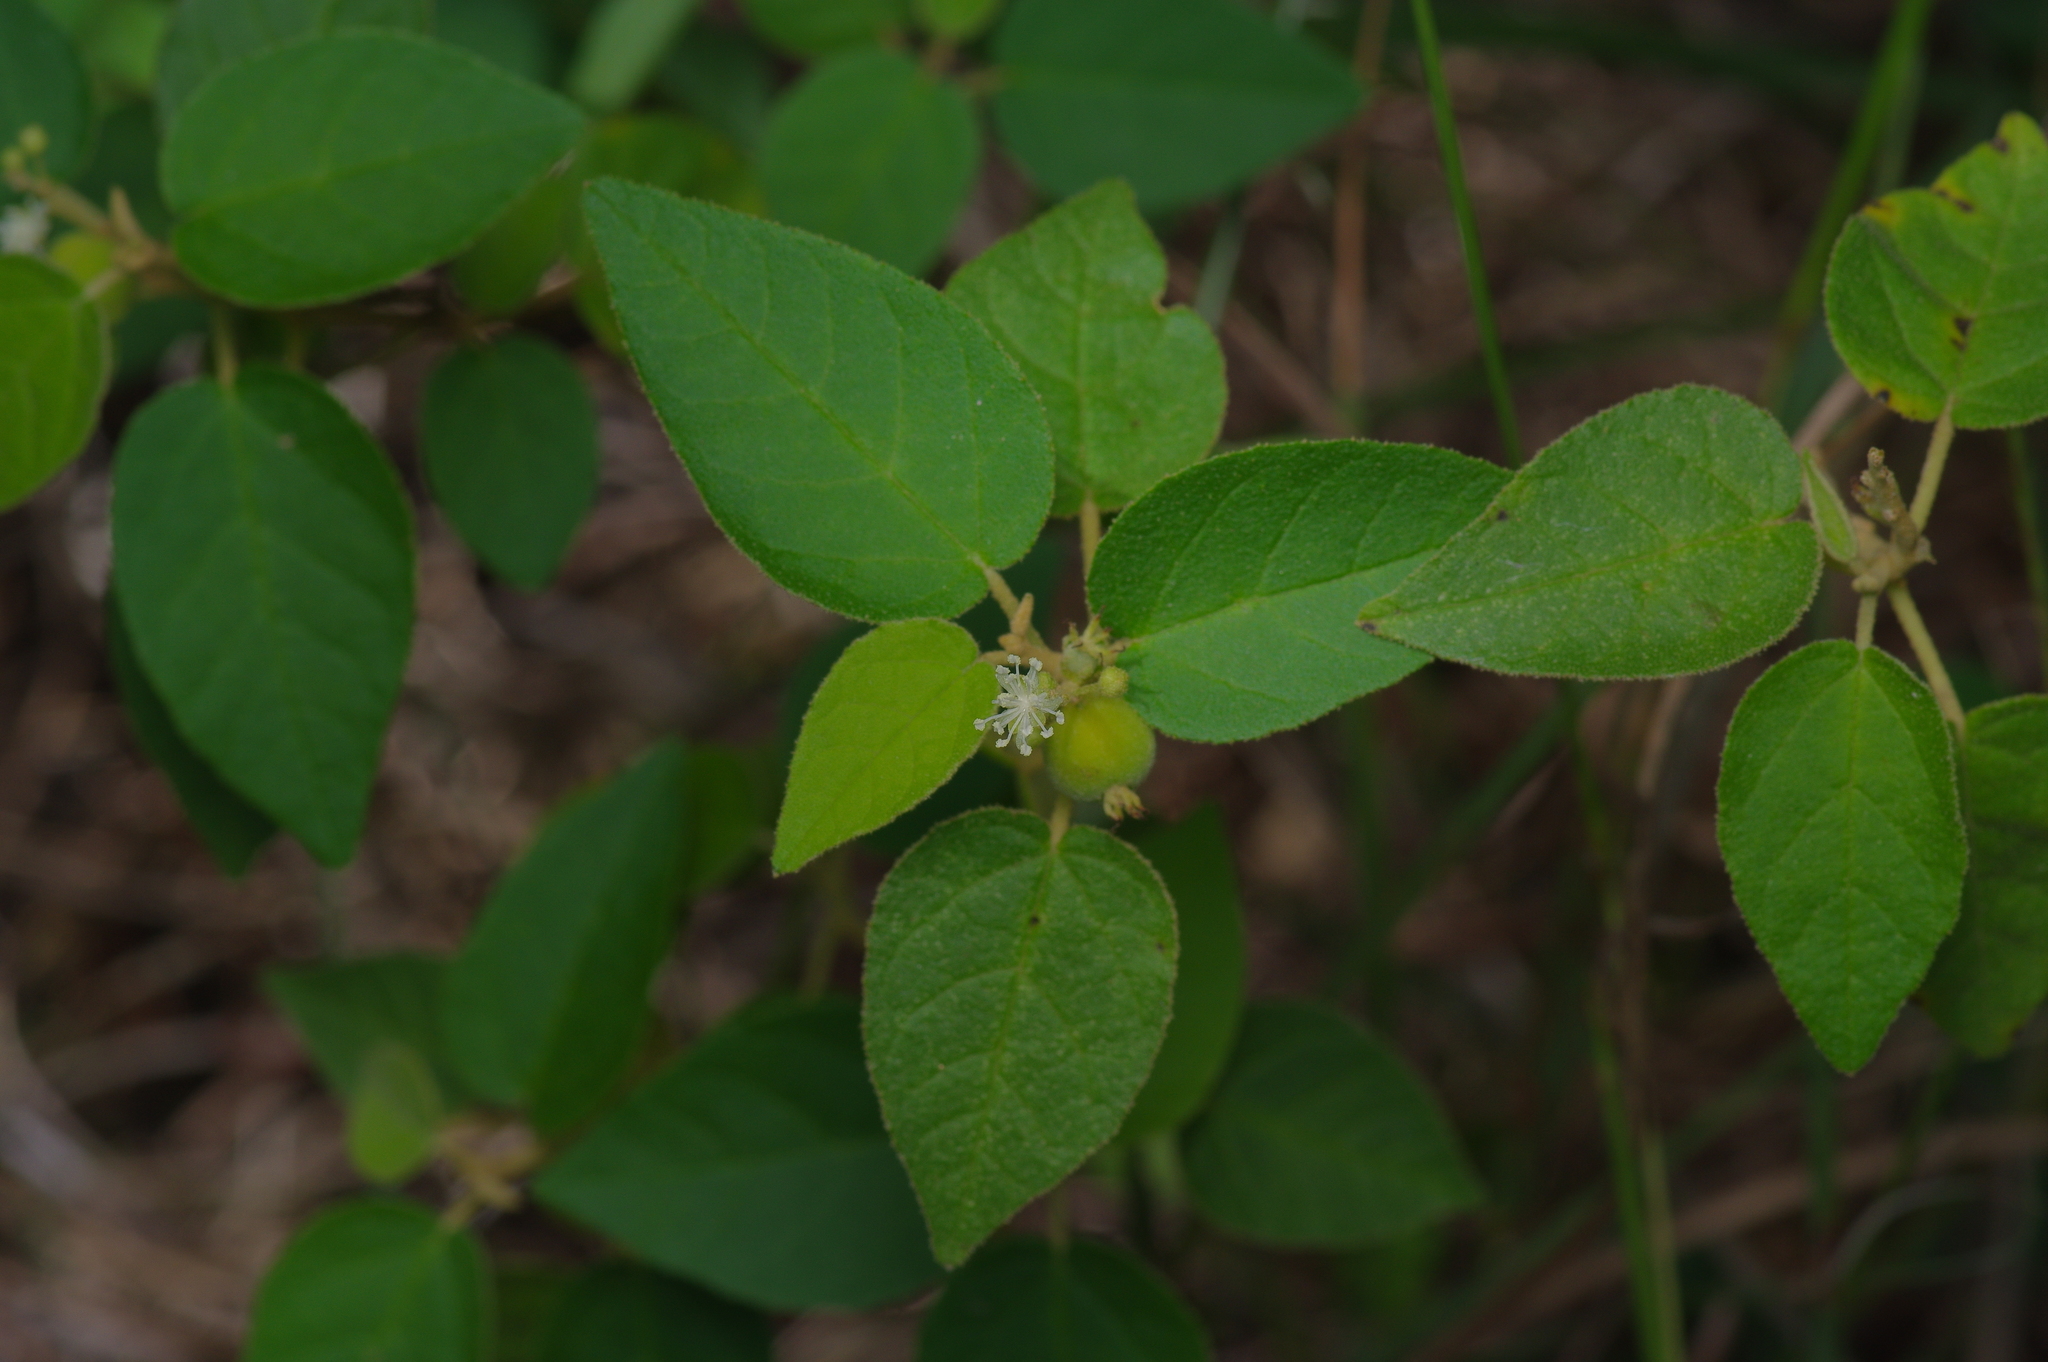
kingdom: Plantae
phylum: Tracheophyta
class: Magnoliopsida
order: Malpighiales
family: Euphorbiaceae
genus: Croton
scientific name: Croton fruticulosus
